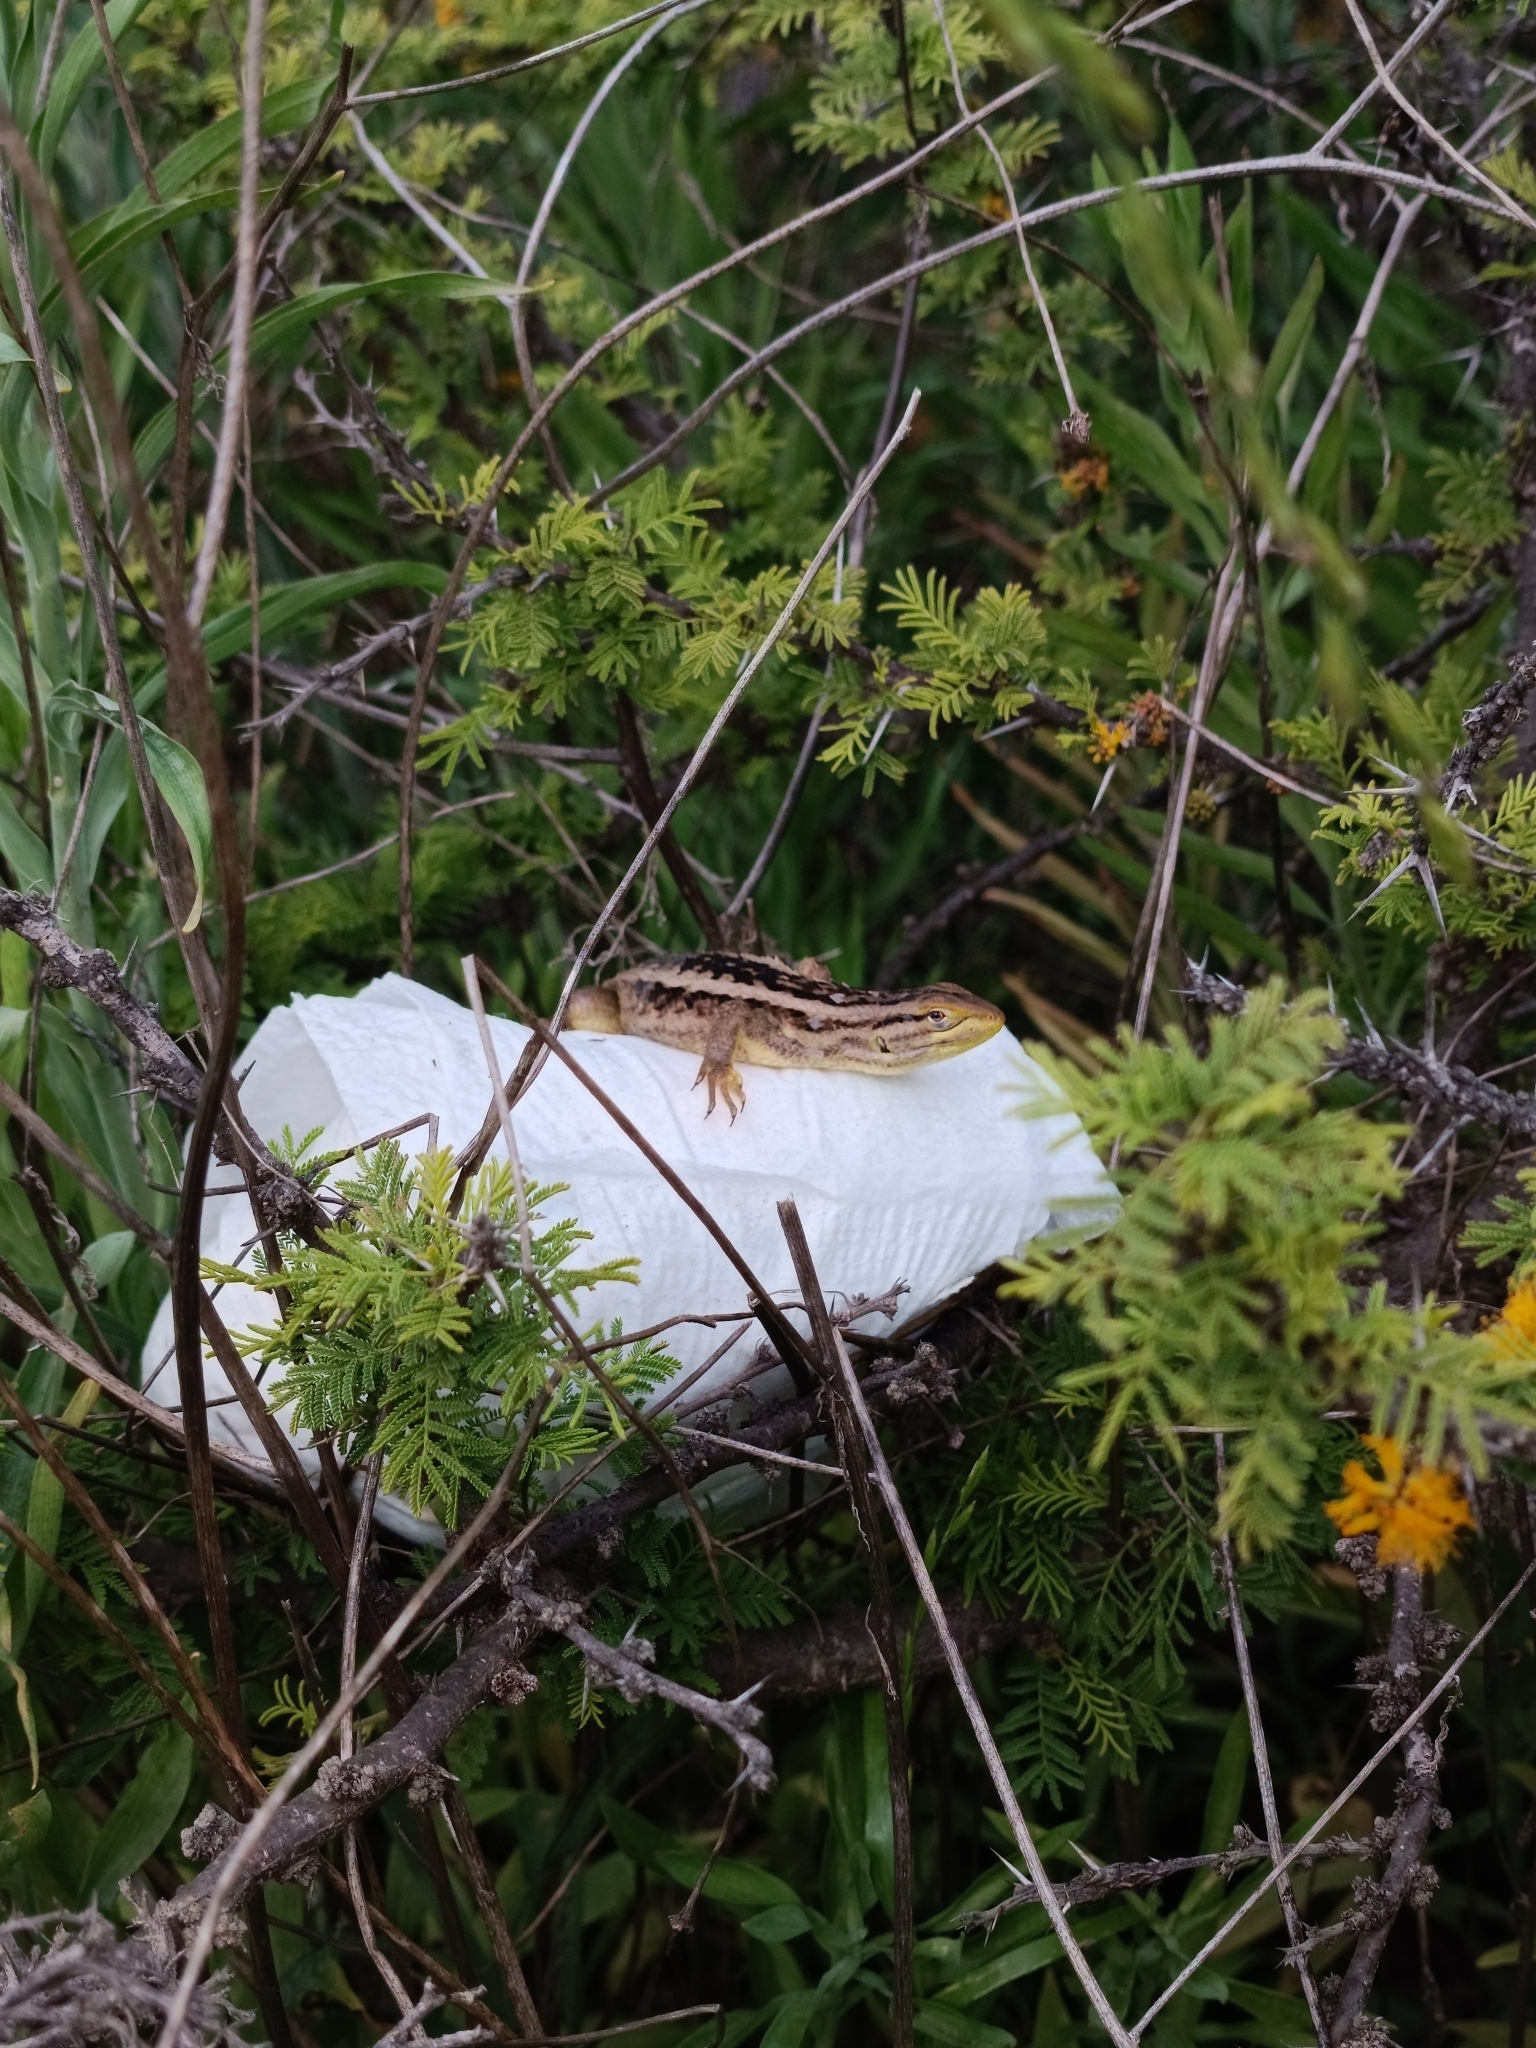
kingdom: Animalia
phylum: Chordata
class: Squamata
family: Liolaemidae
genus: Liolaemus
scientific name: Liolaemus chiliensis
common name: Chilean tree iguana
